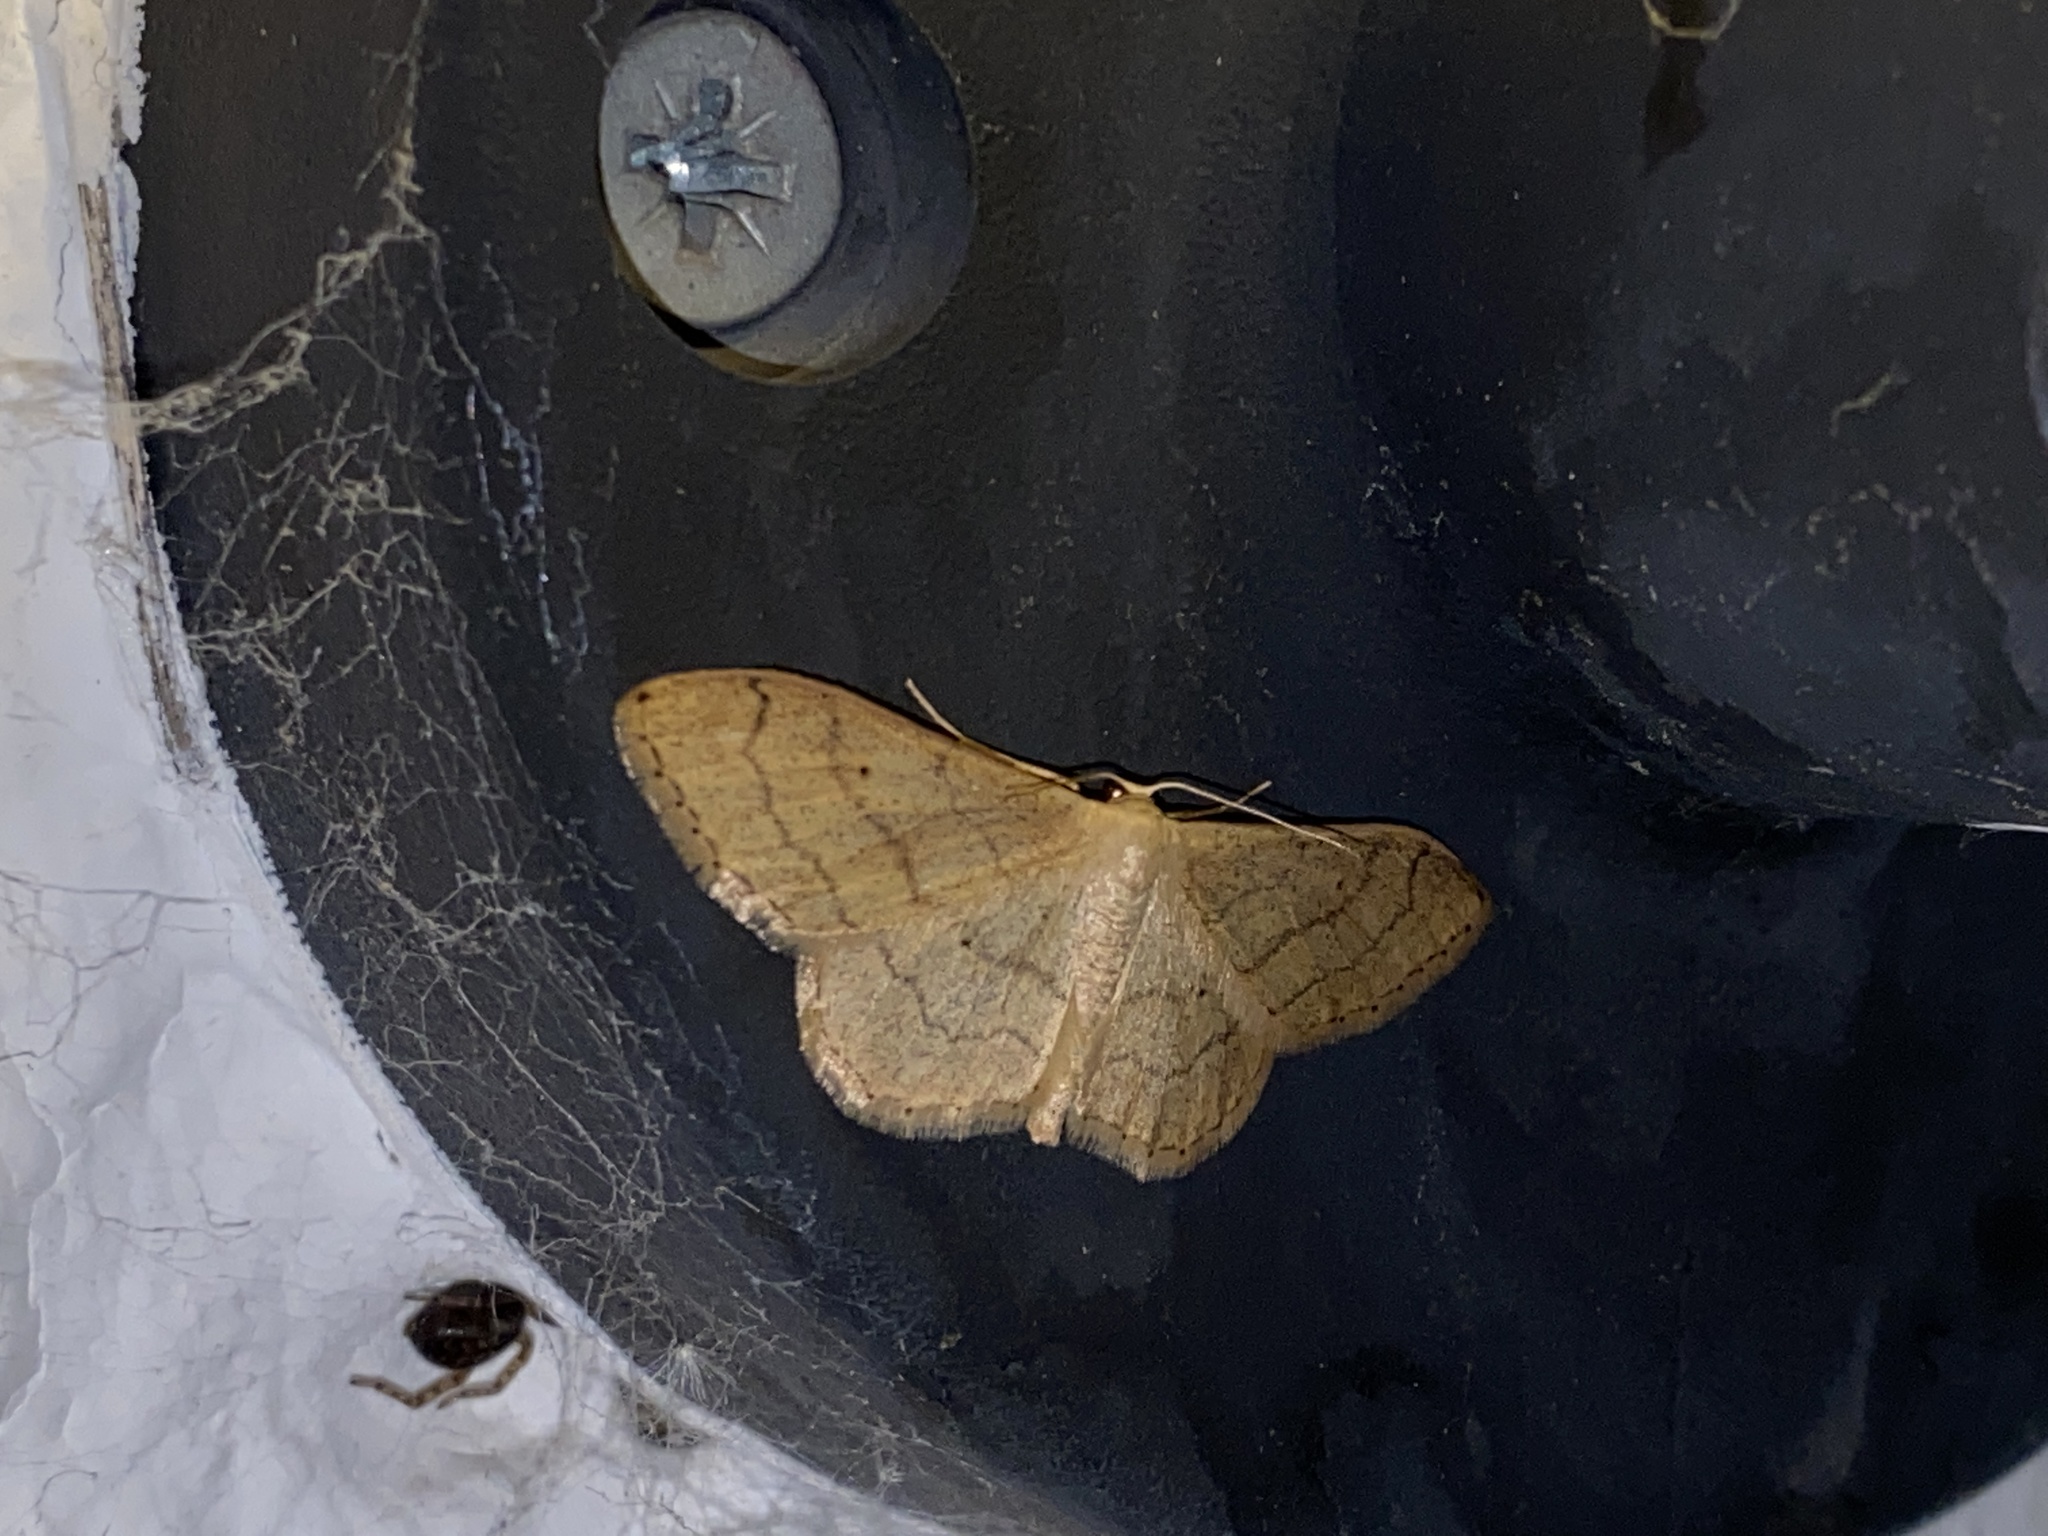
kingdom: Animalia
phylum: Arthropoda
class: Insecta
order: Lepidoptera
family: Geometridae
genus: Idaea
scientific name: Idaea aversata
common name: Riband wave
